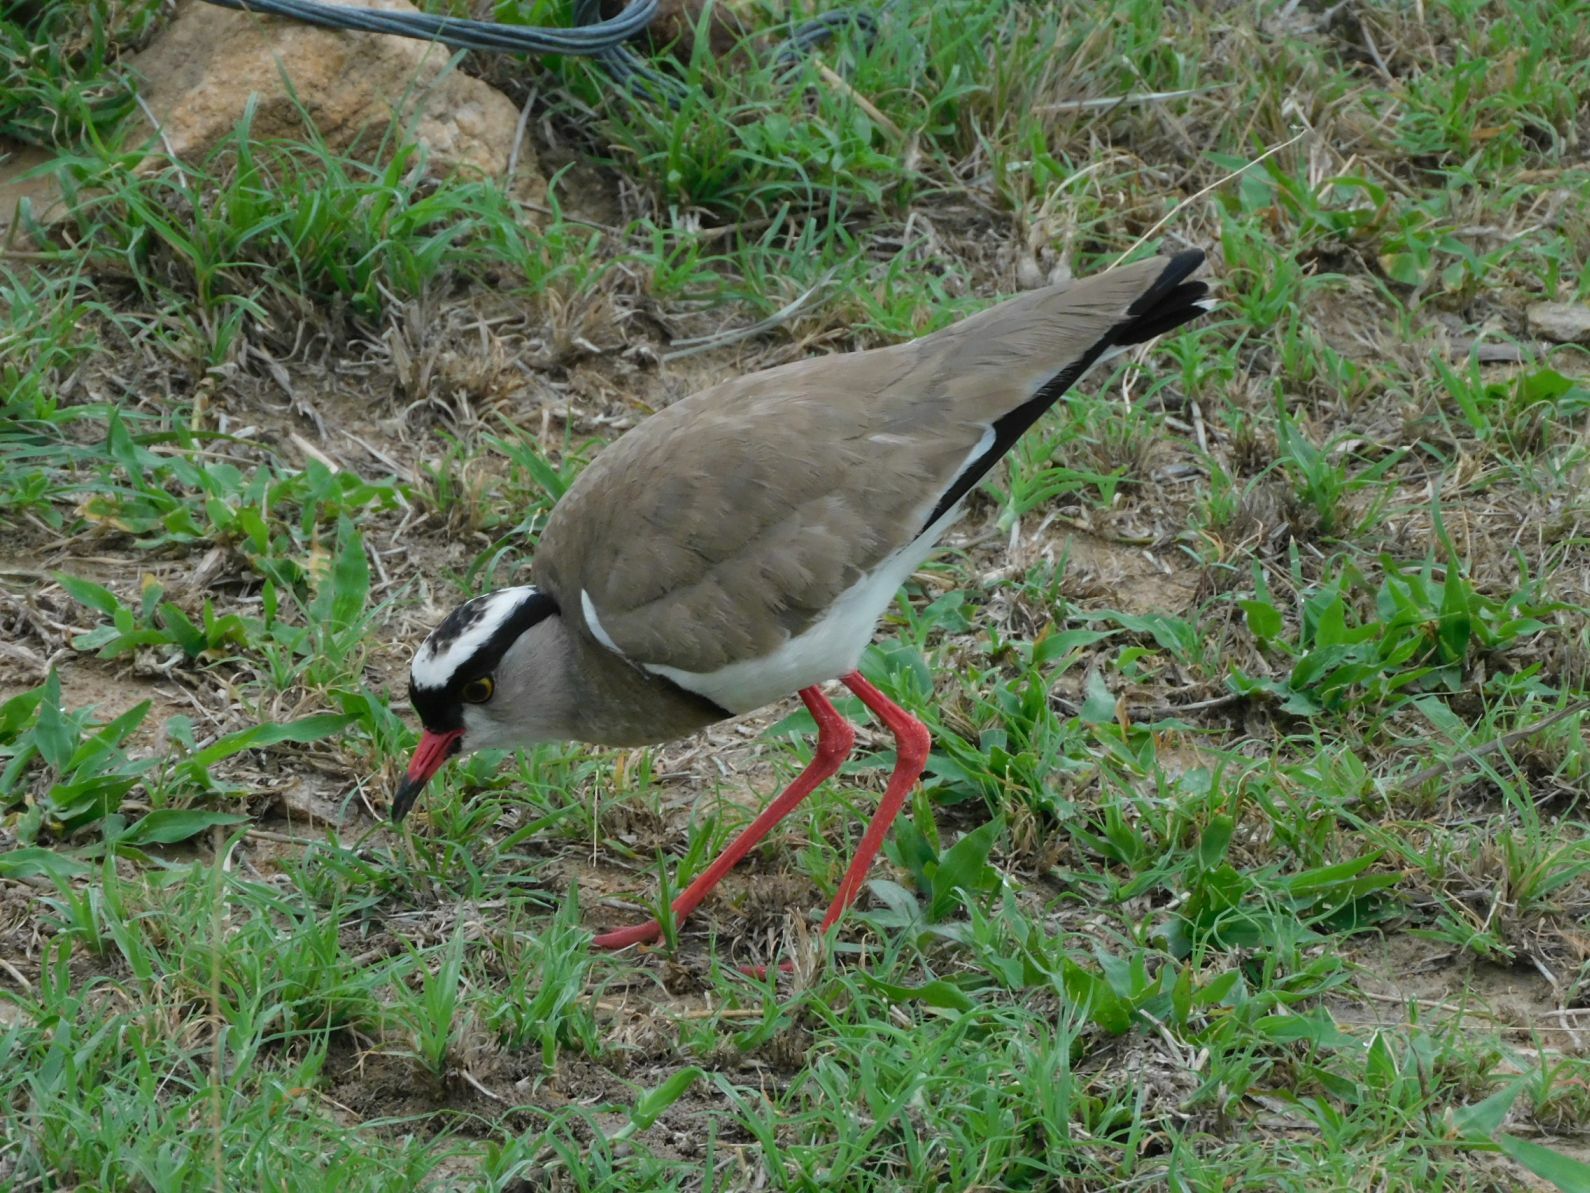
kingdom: Animalia
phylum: Chordata
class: Aves
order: Charadriiformes
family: Charadriidae
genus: Vanellus
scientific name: Vanellus coronatus
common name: Crowned lapwing
